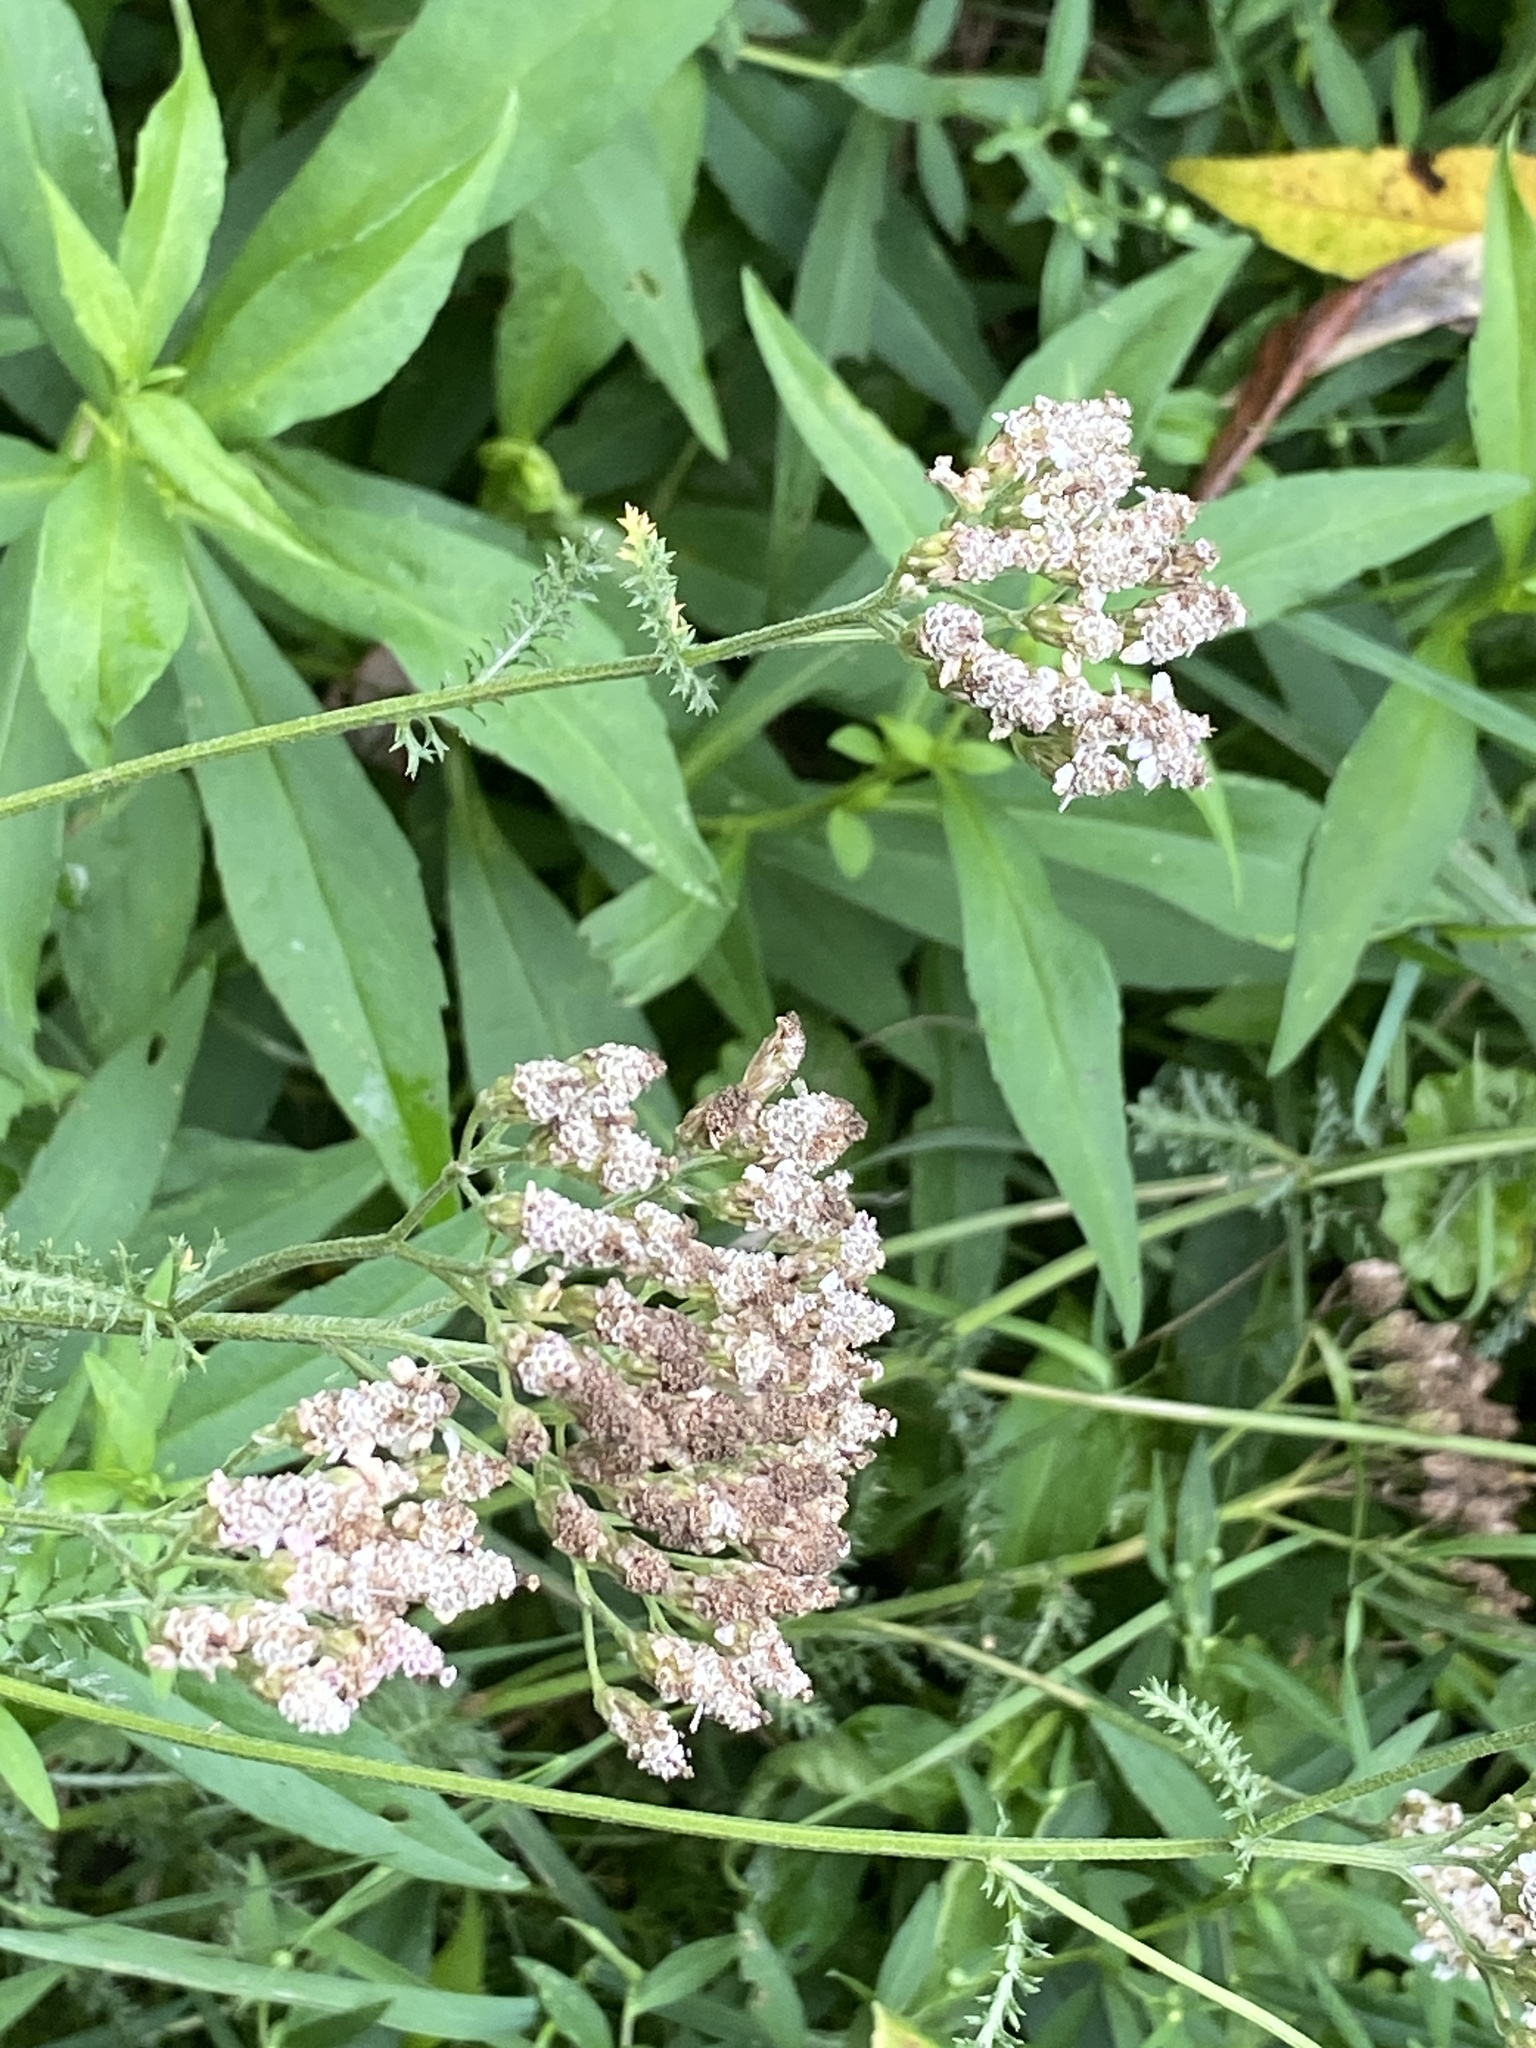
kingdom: Plantae
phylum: Tracheophyta
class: Magnoliopsida
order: Asterales
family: Asteraceae
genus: Achillea
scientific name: Achillea millefolium
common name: Yarrow
